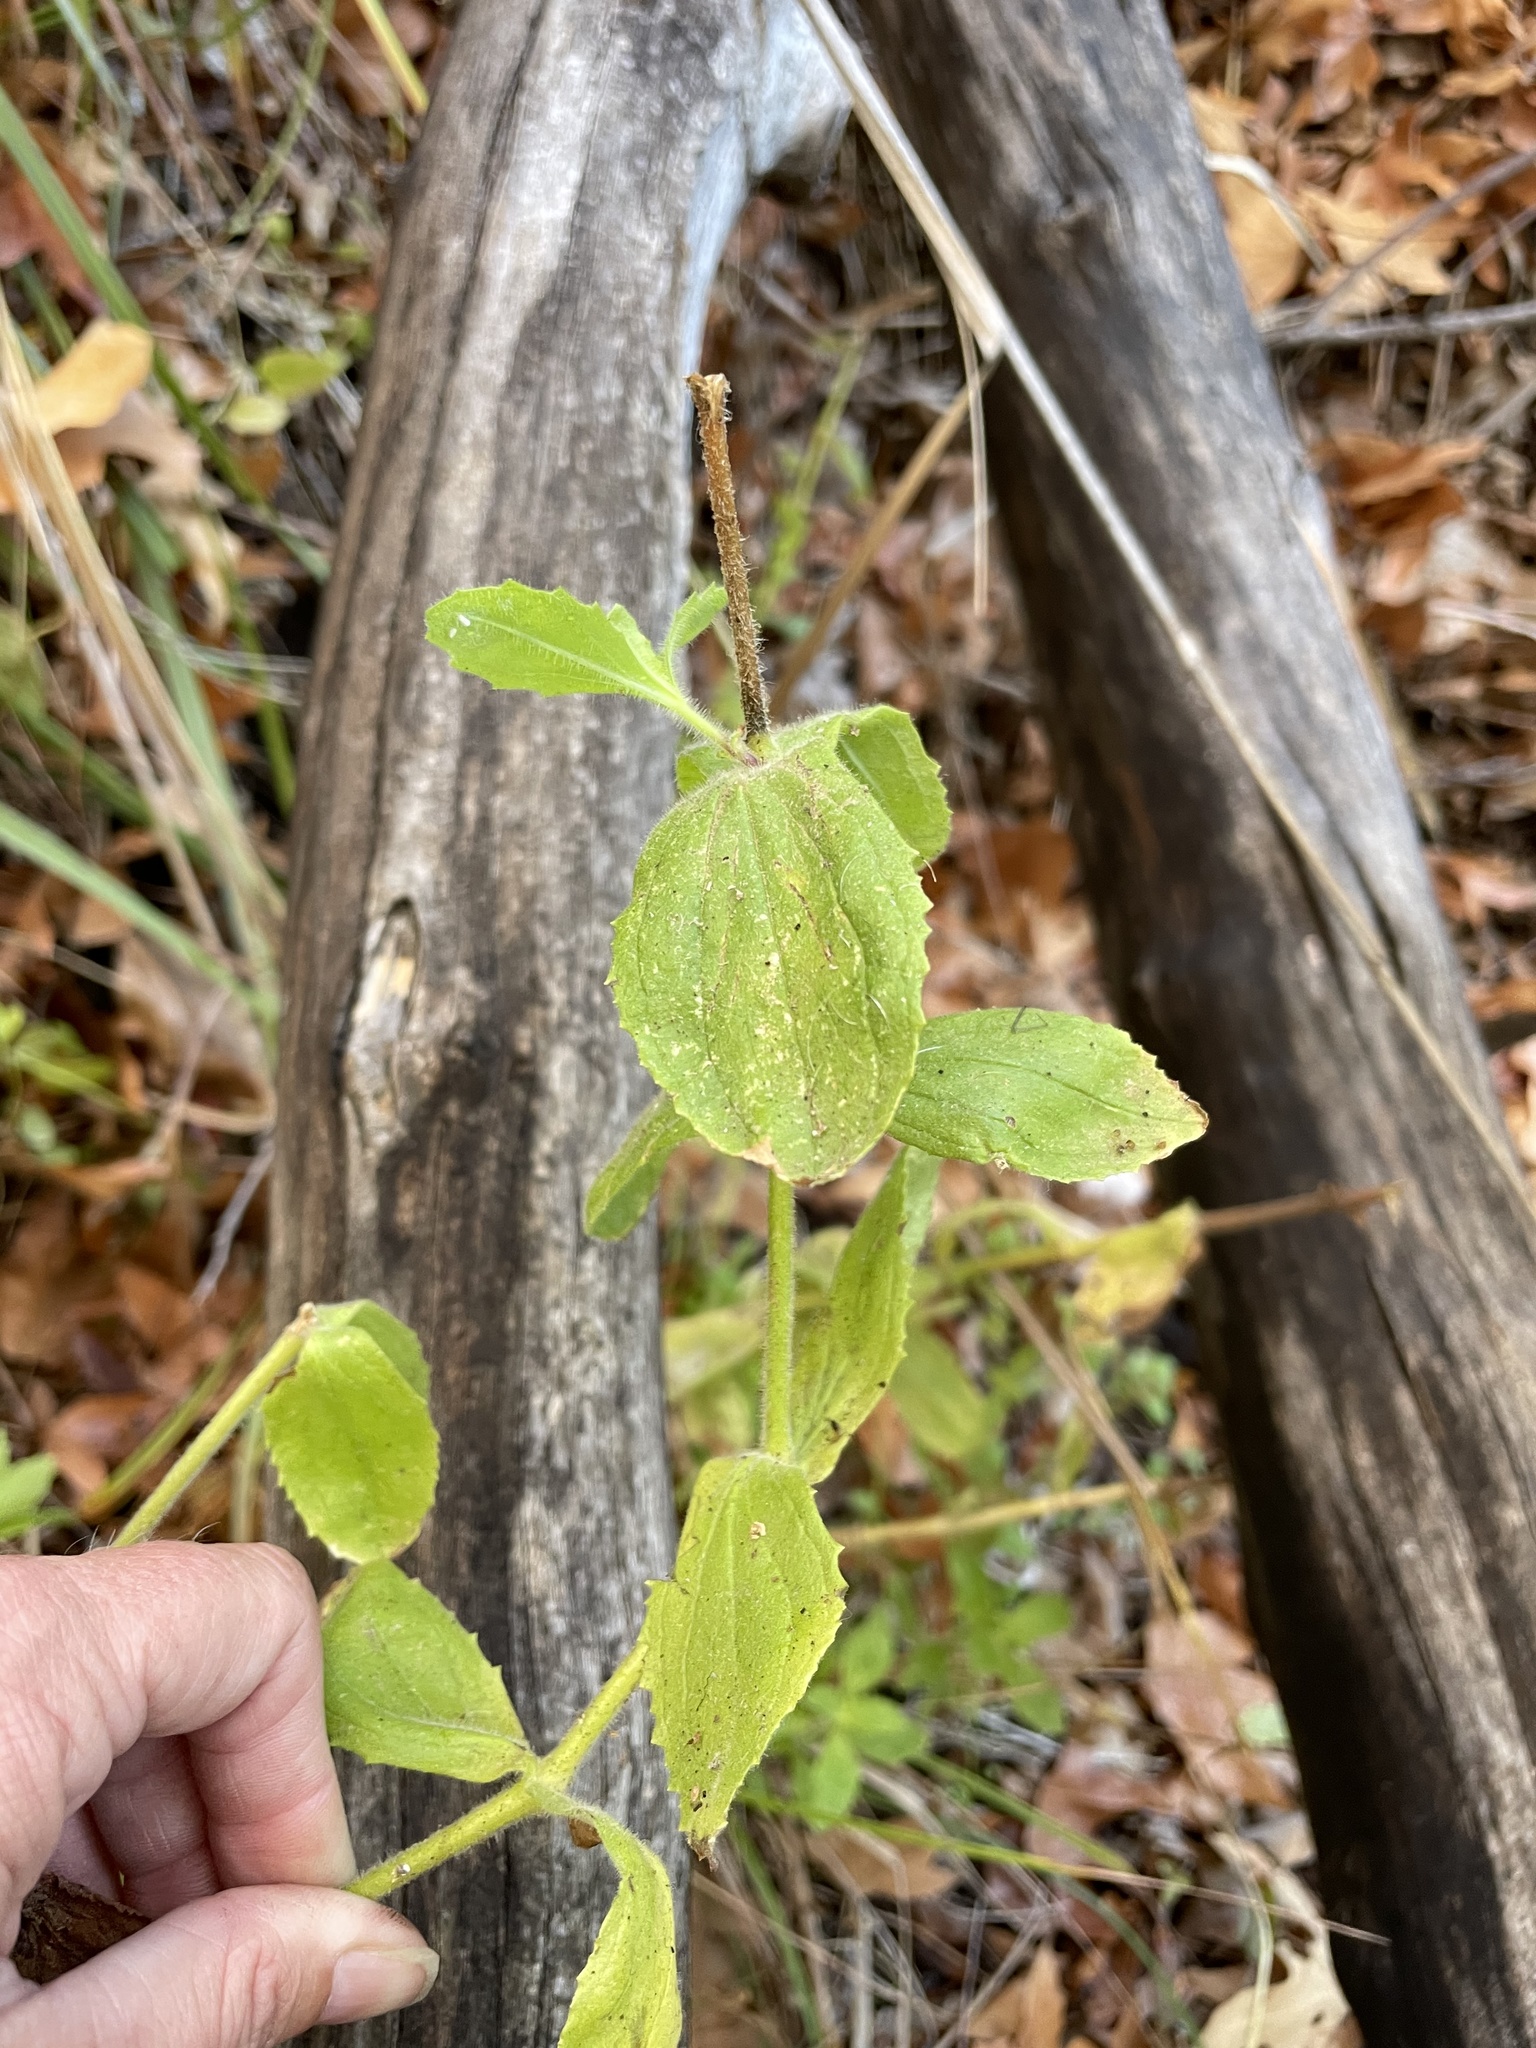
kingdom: Plantae
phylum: Tracheophyta
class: Magnoliopsida
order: Lamiales
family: Phrymaceae
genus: Erythranthe
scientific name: Erythranthe cardinalis
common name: Scarlet monkey-flower
